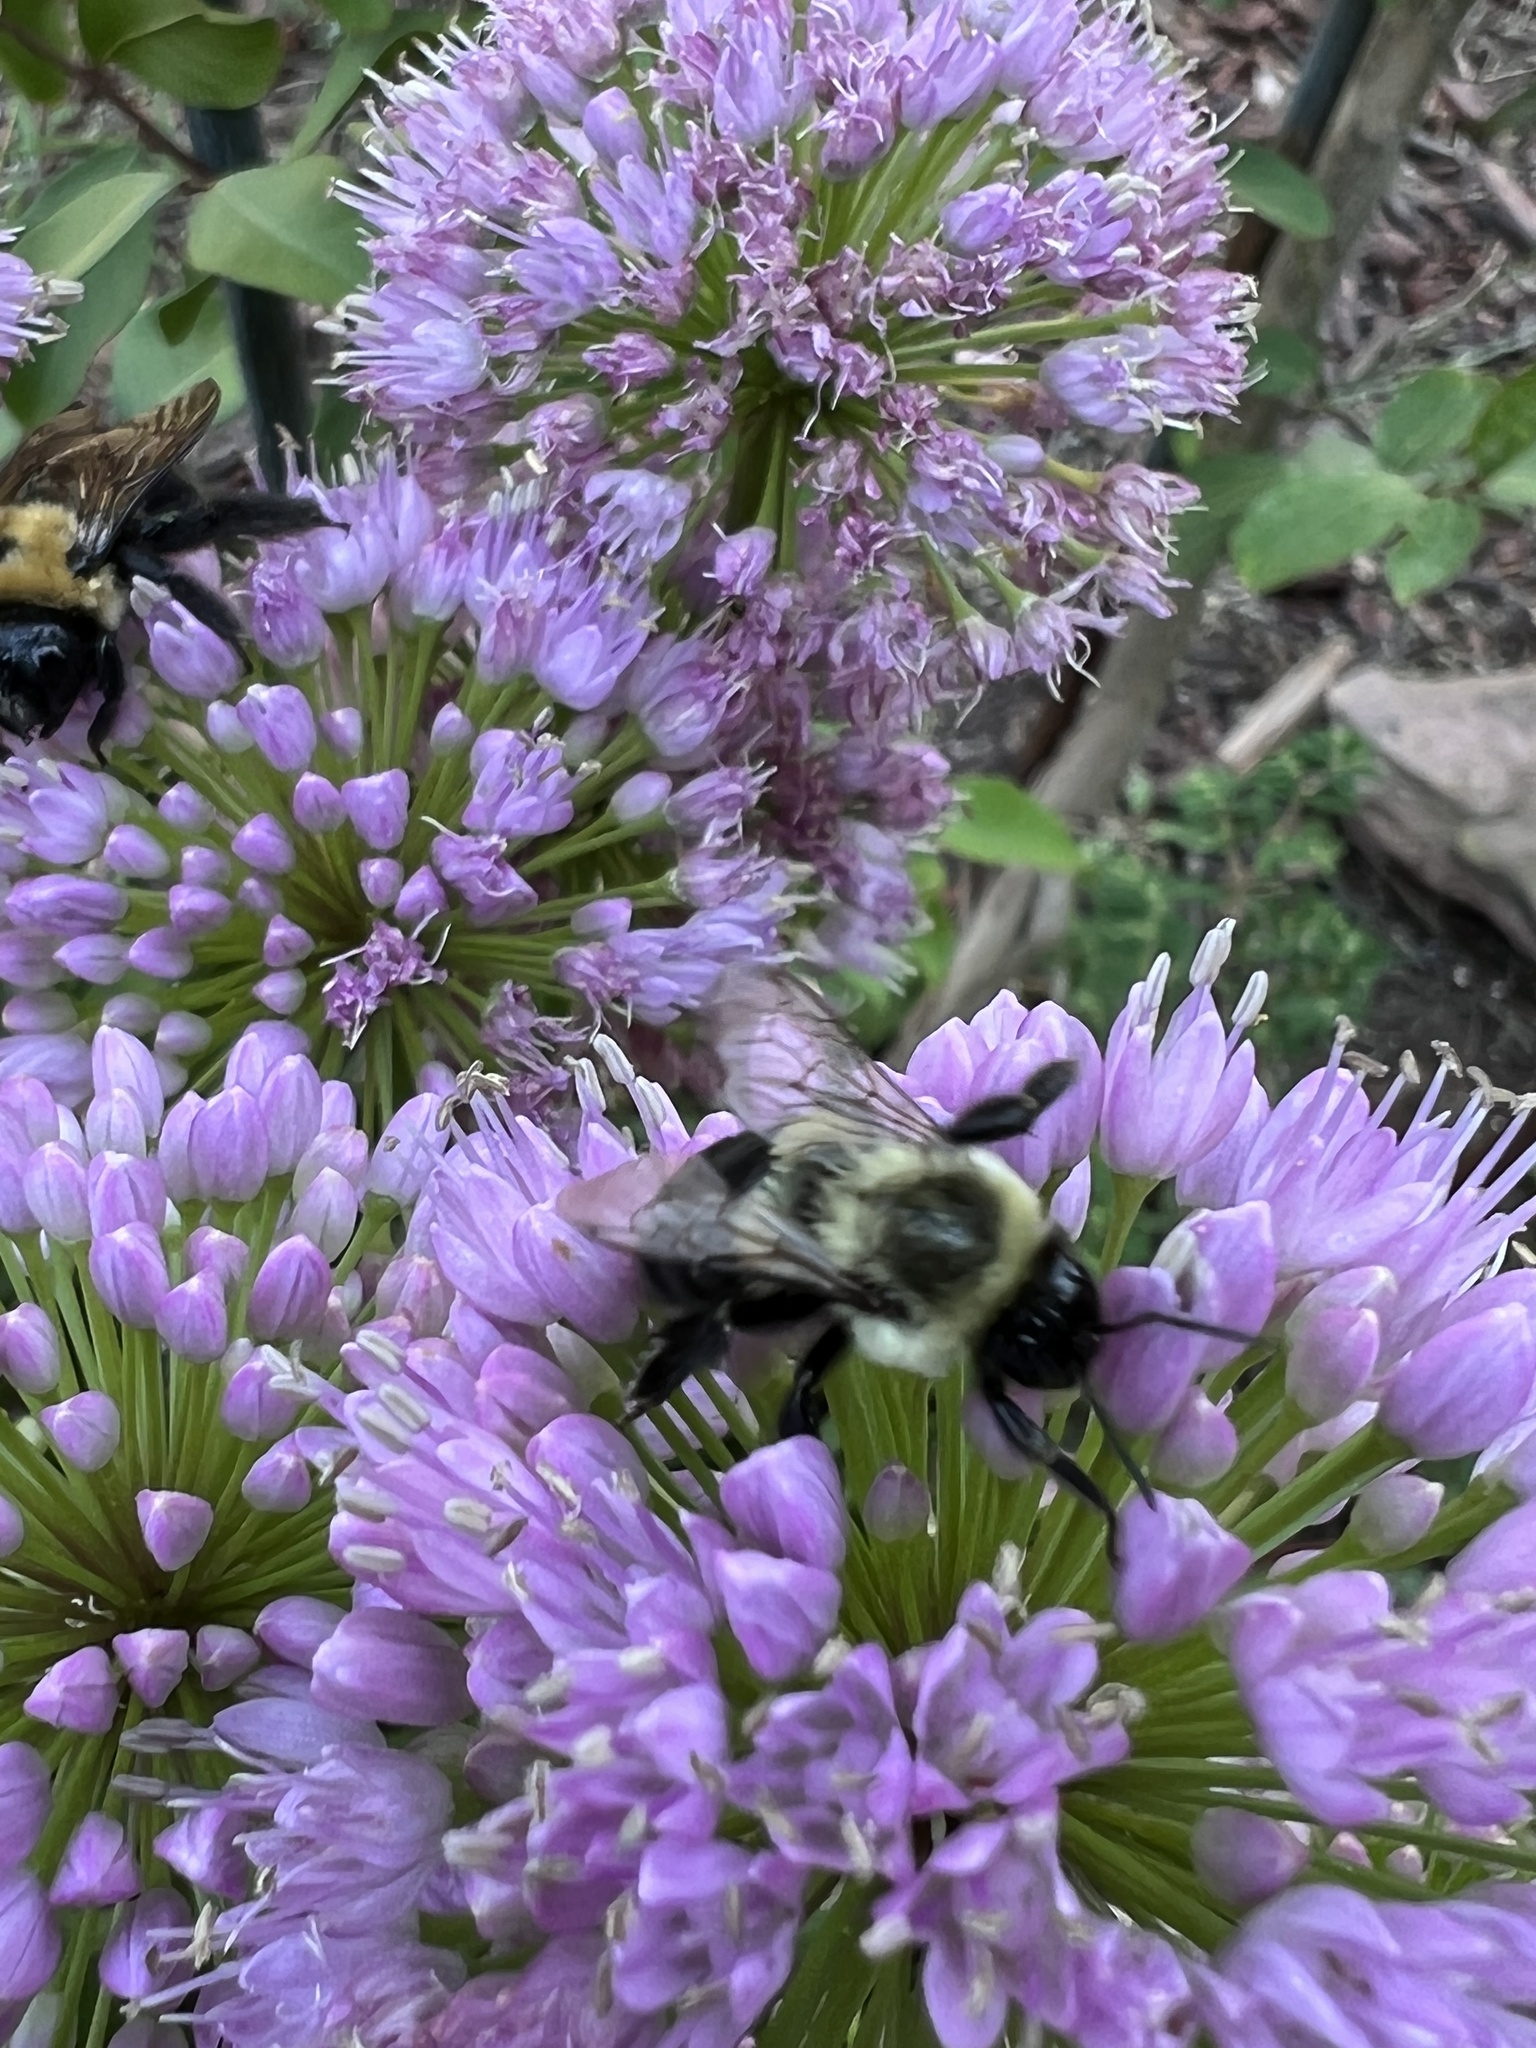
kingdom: Animalia
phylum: Arthropoda
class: Insecta
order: Hymenoptera
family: Apidae
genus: Bombus
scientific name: Bombus impatiens
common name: Common eastern bumble bee
